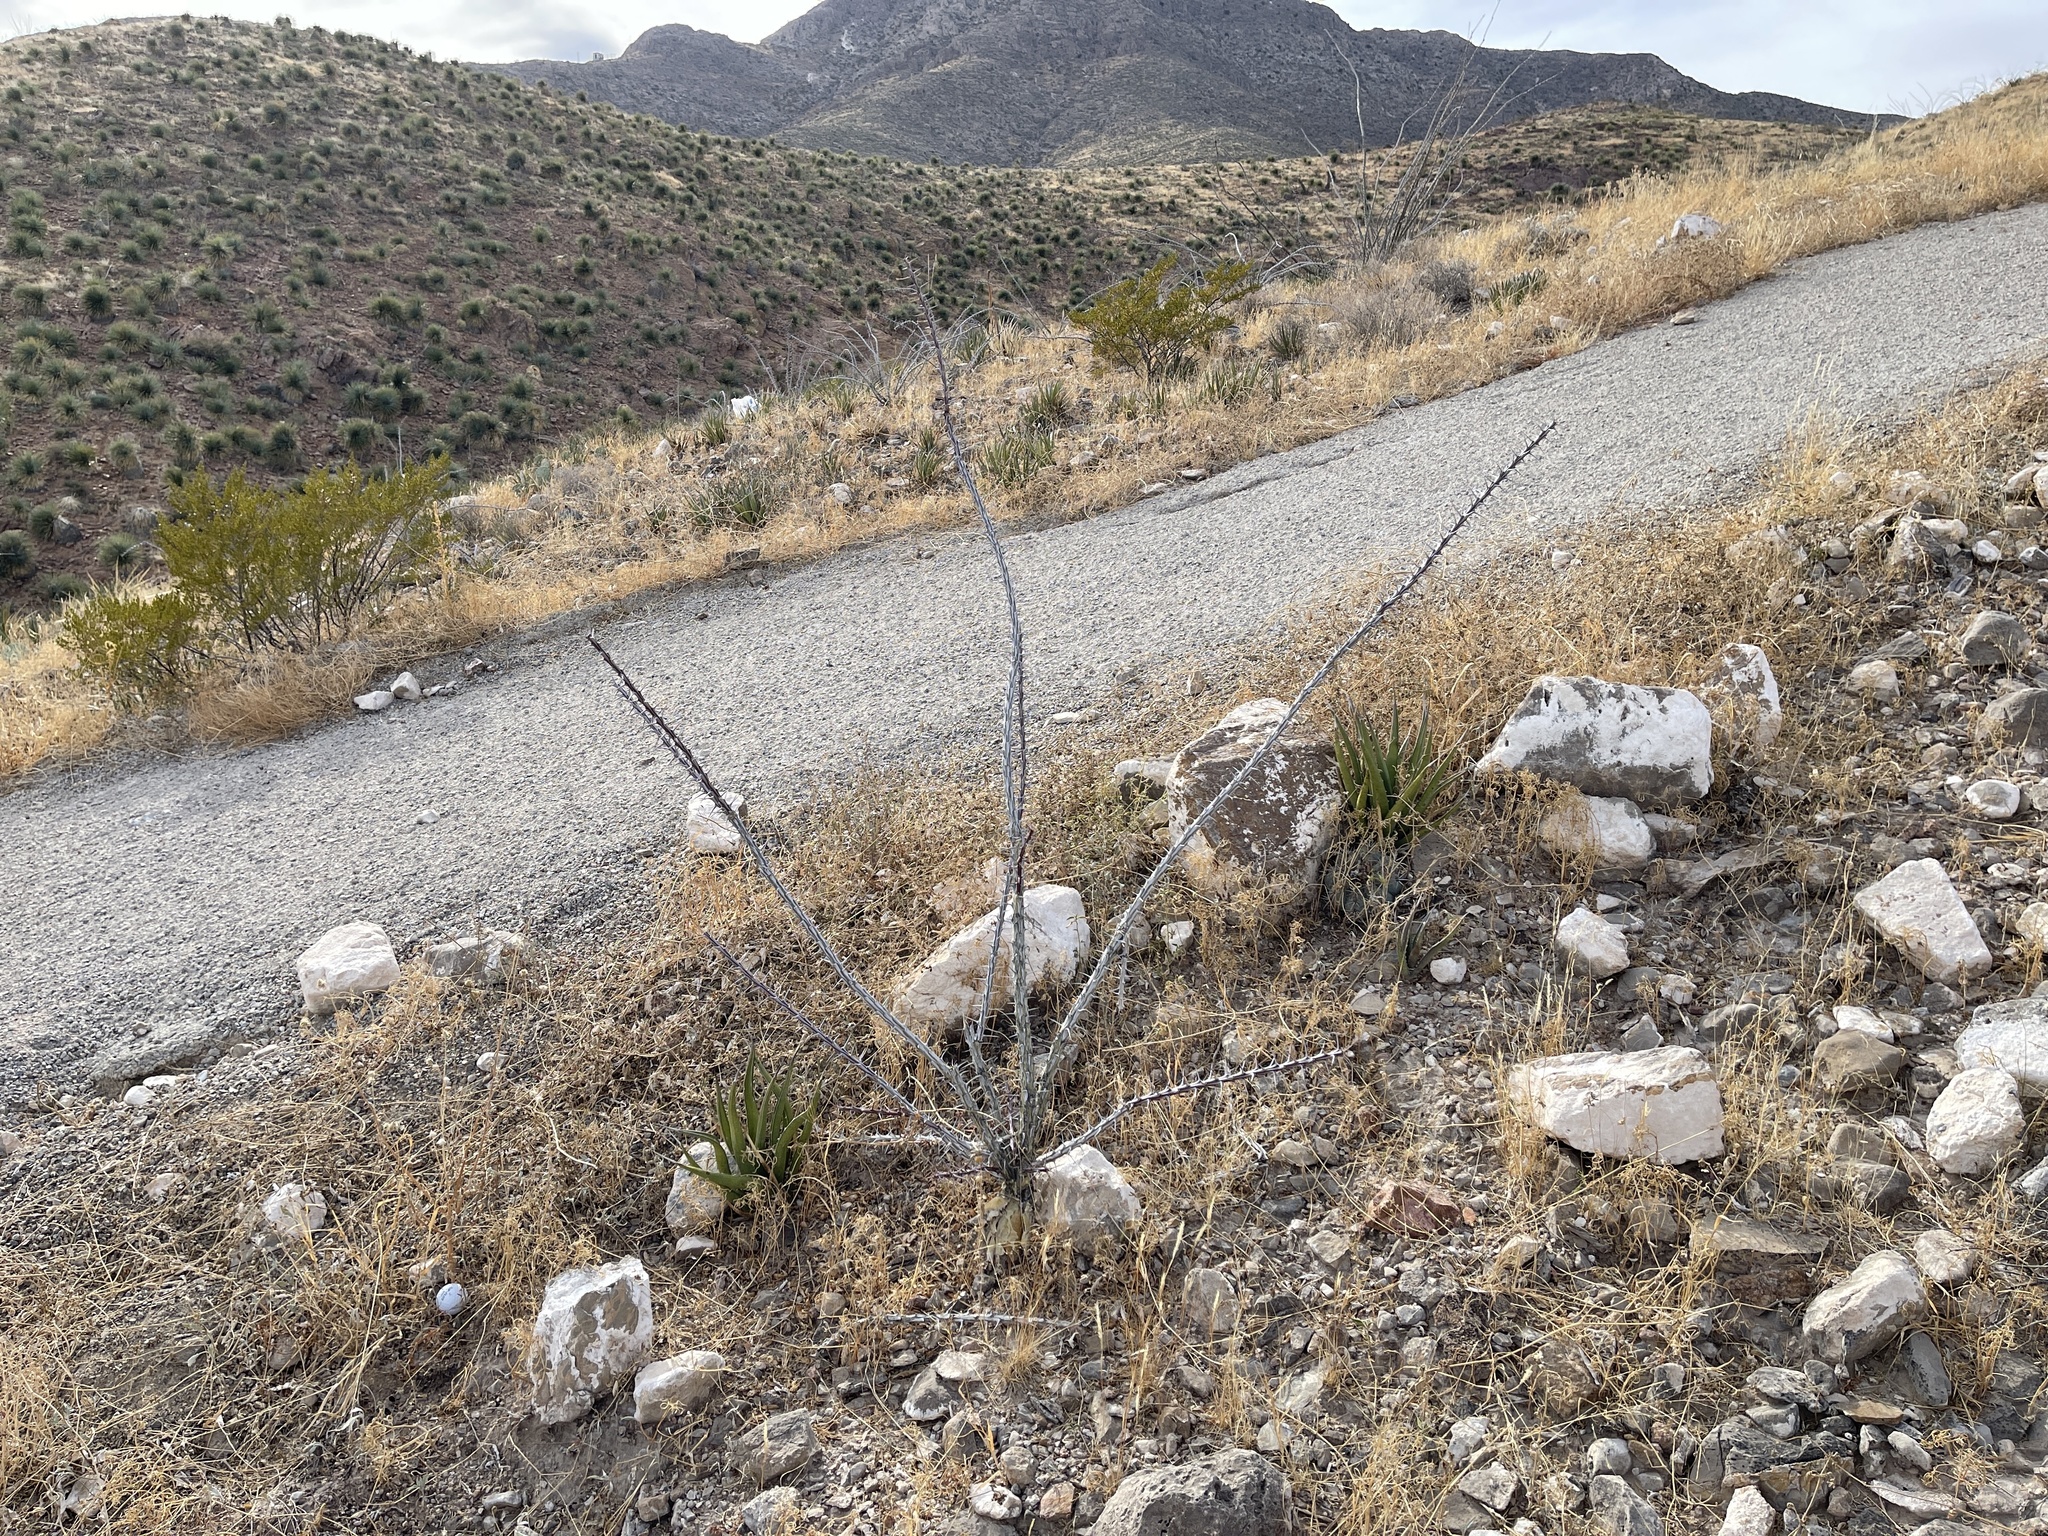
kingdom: Plantae
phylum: Tracheophyta
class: Magnoliopsida
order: Ericales
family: Fouquieriaceae
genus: Fouquieria
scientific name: Fouquieria splendens
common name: Vine-cactus
